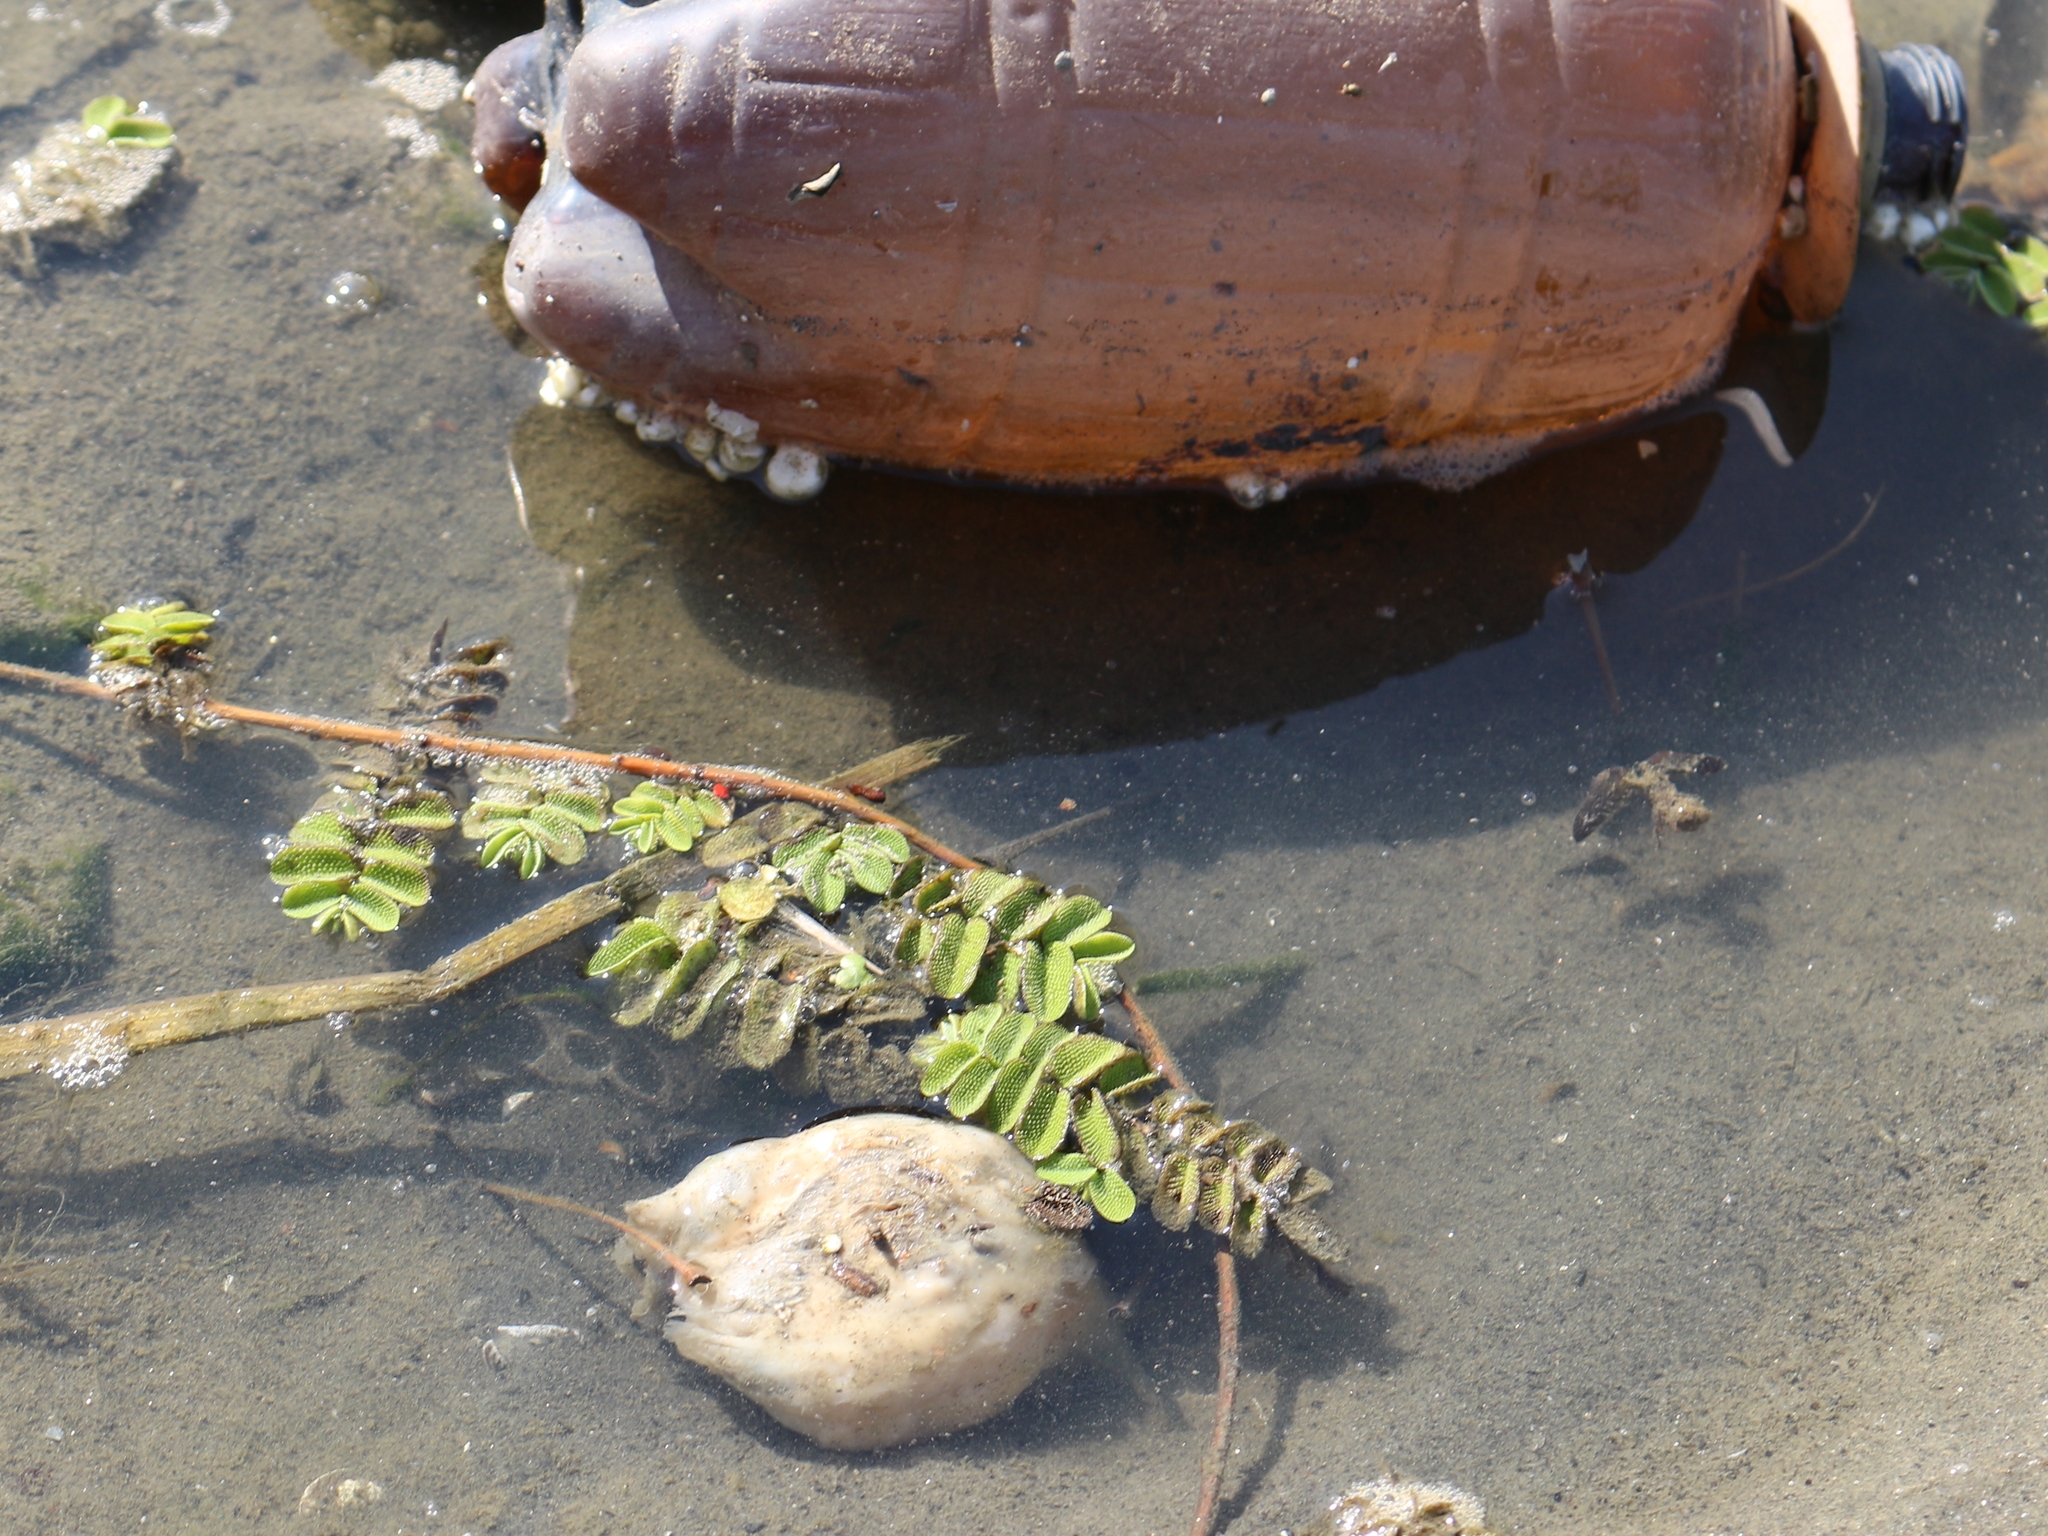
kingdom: Plantae
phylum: Tracheophyta
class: Polypodiopsida
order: Salviniales
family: Salviniaceae
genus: Salvinia
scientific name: Salvinia natans
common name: Floating fern
